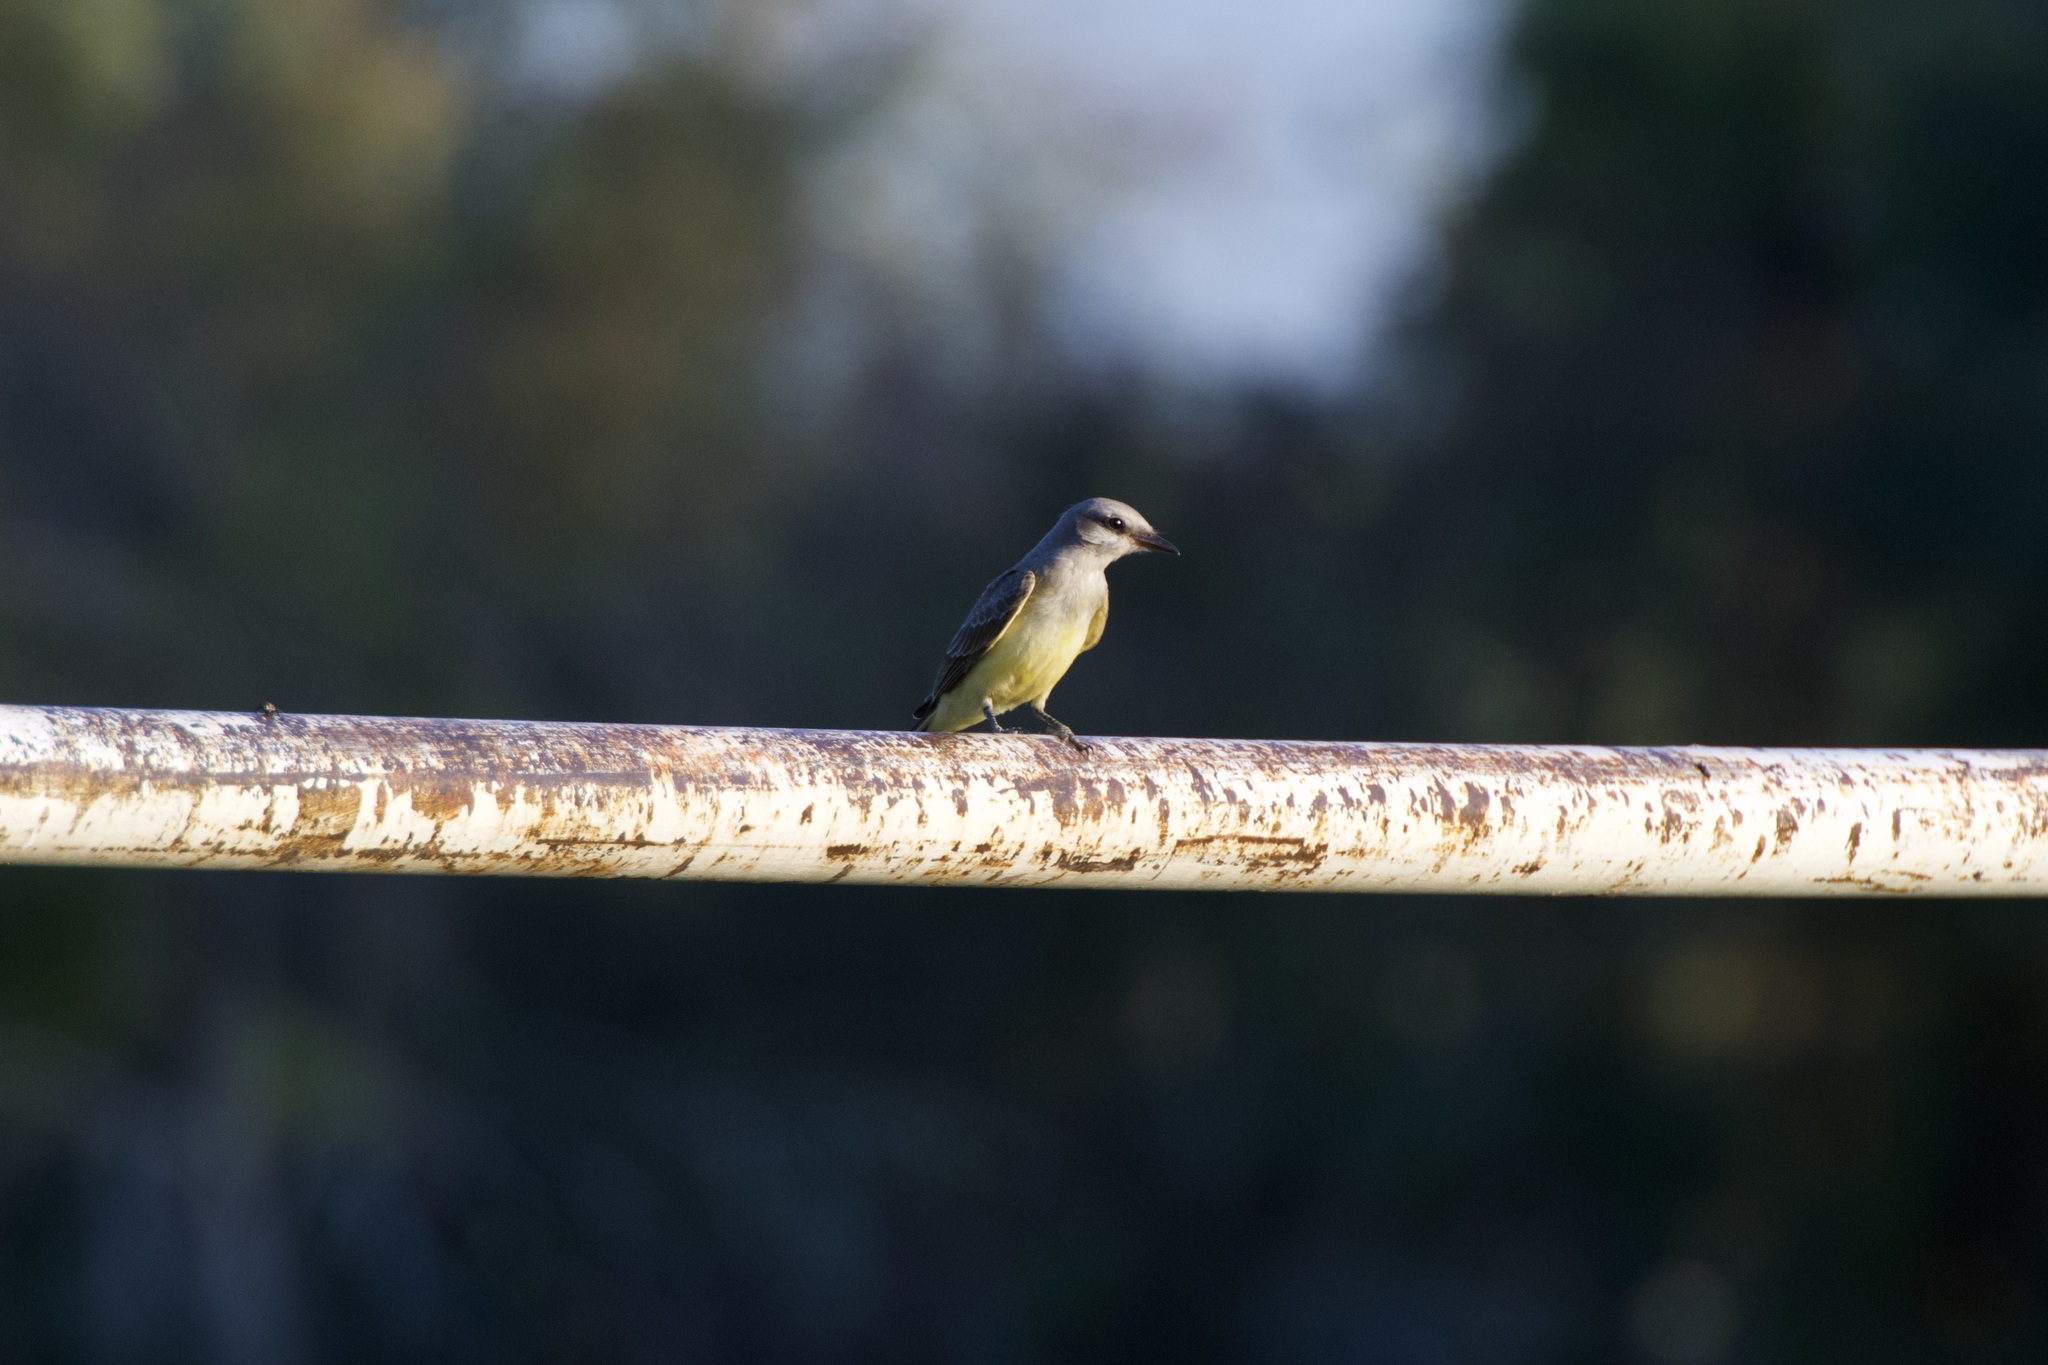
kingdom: Animalia
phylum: Chordata
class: Aves
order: Passeriformes
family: Tyrannidae
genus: Tyrannus
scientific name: Tyrannus verticalis
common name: Western kingbird
